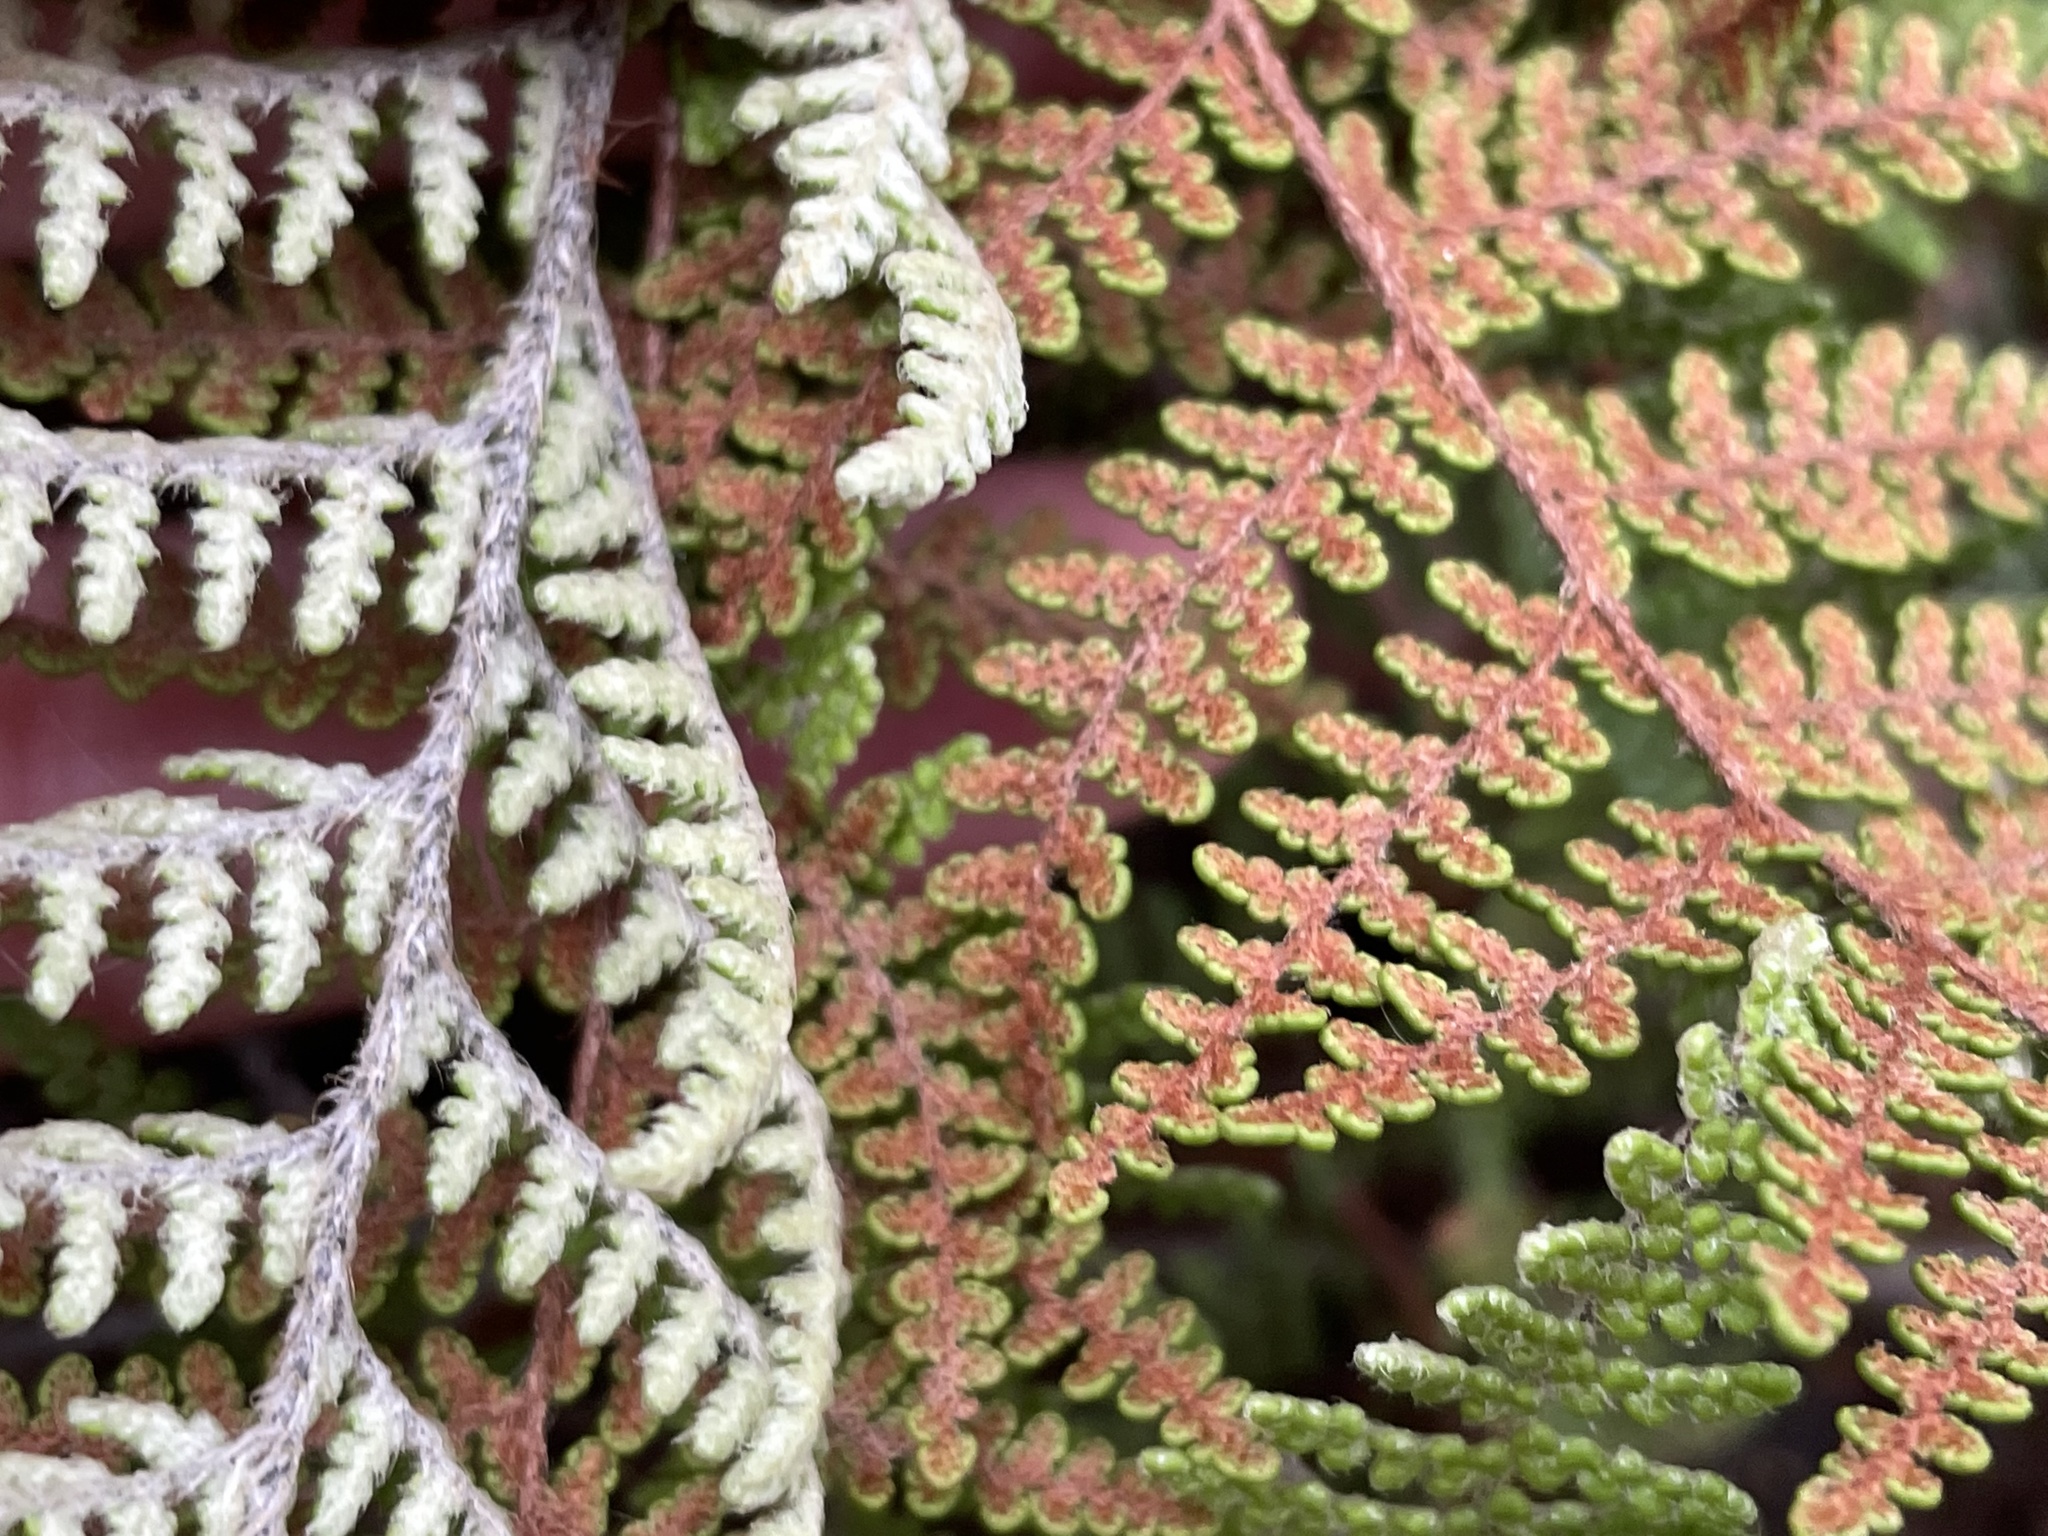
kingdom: Plantae
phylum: Tracheophyta
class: Polypodiopsida
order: Polypodiales
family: Pteridaceae
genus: Myriopteris
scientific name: Myriopteris clevelandii
